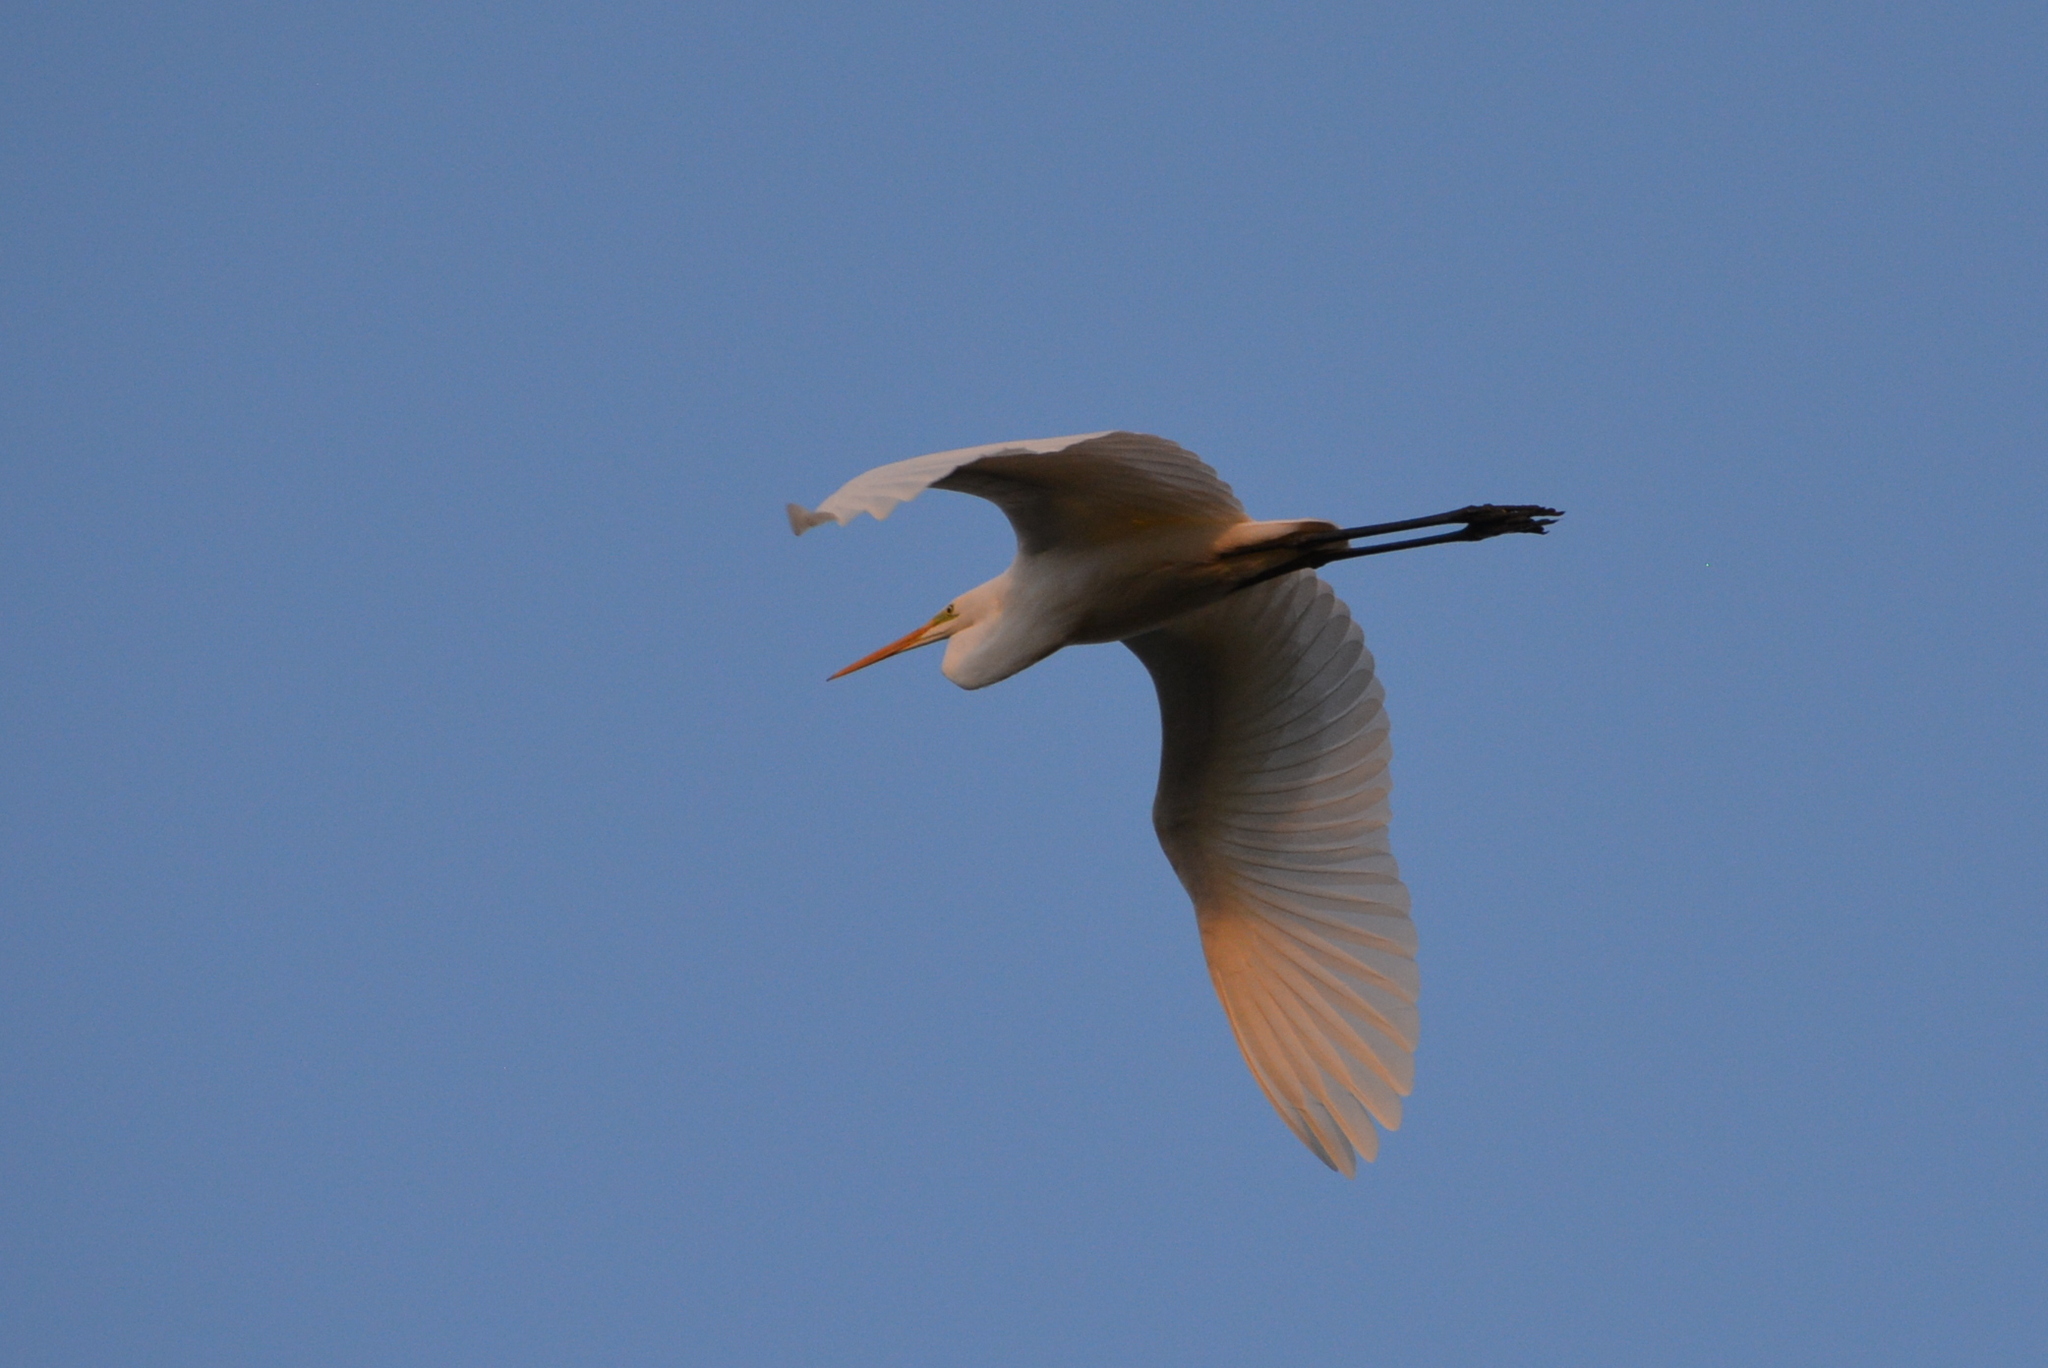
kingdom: Animalia
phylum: Chordata
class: Aves
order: Pelecaniformes
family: Ardeidae
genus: Ardea
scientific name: Ardea alba
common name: Great egret
